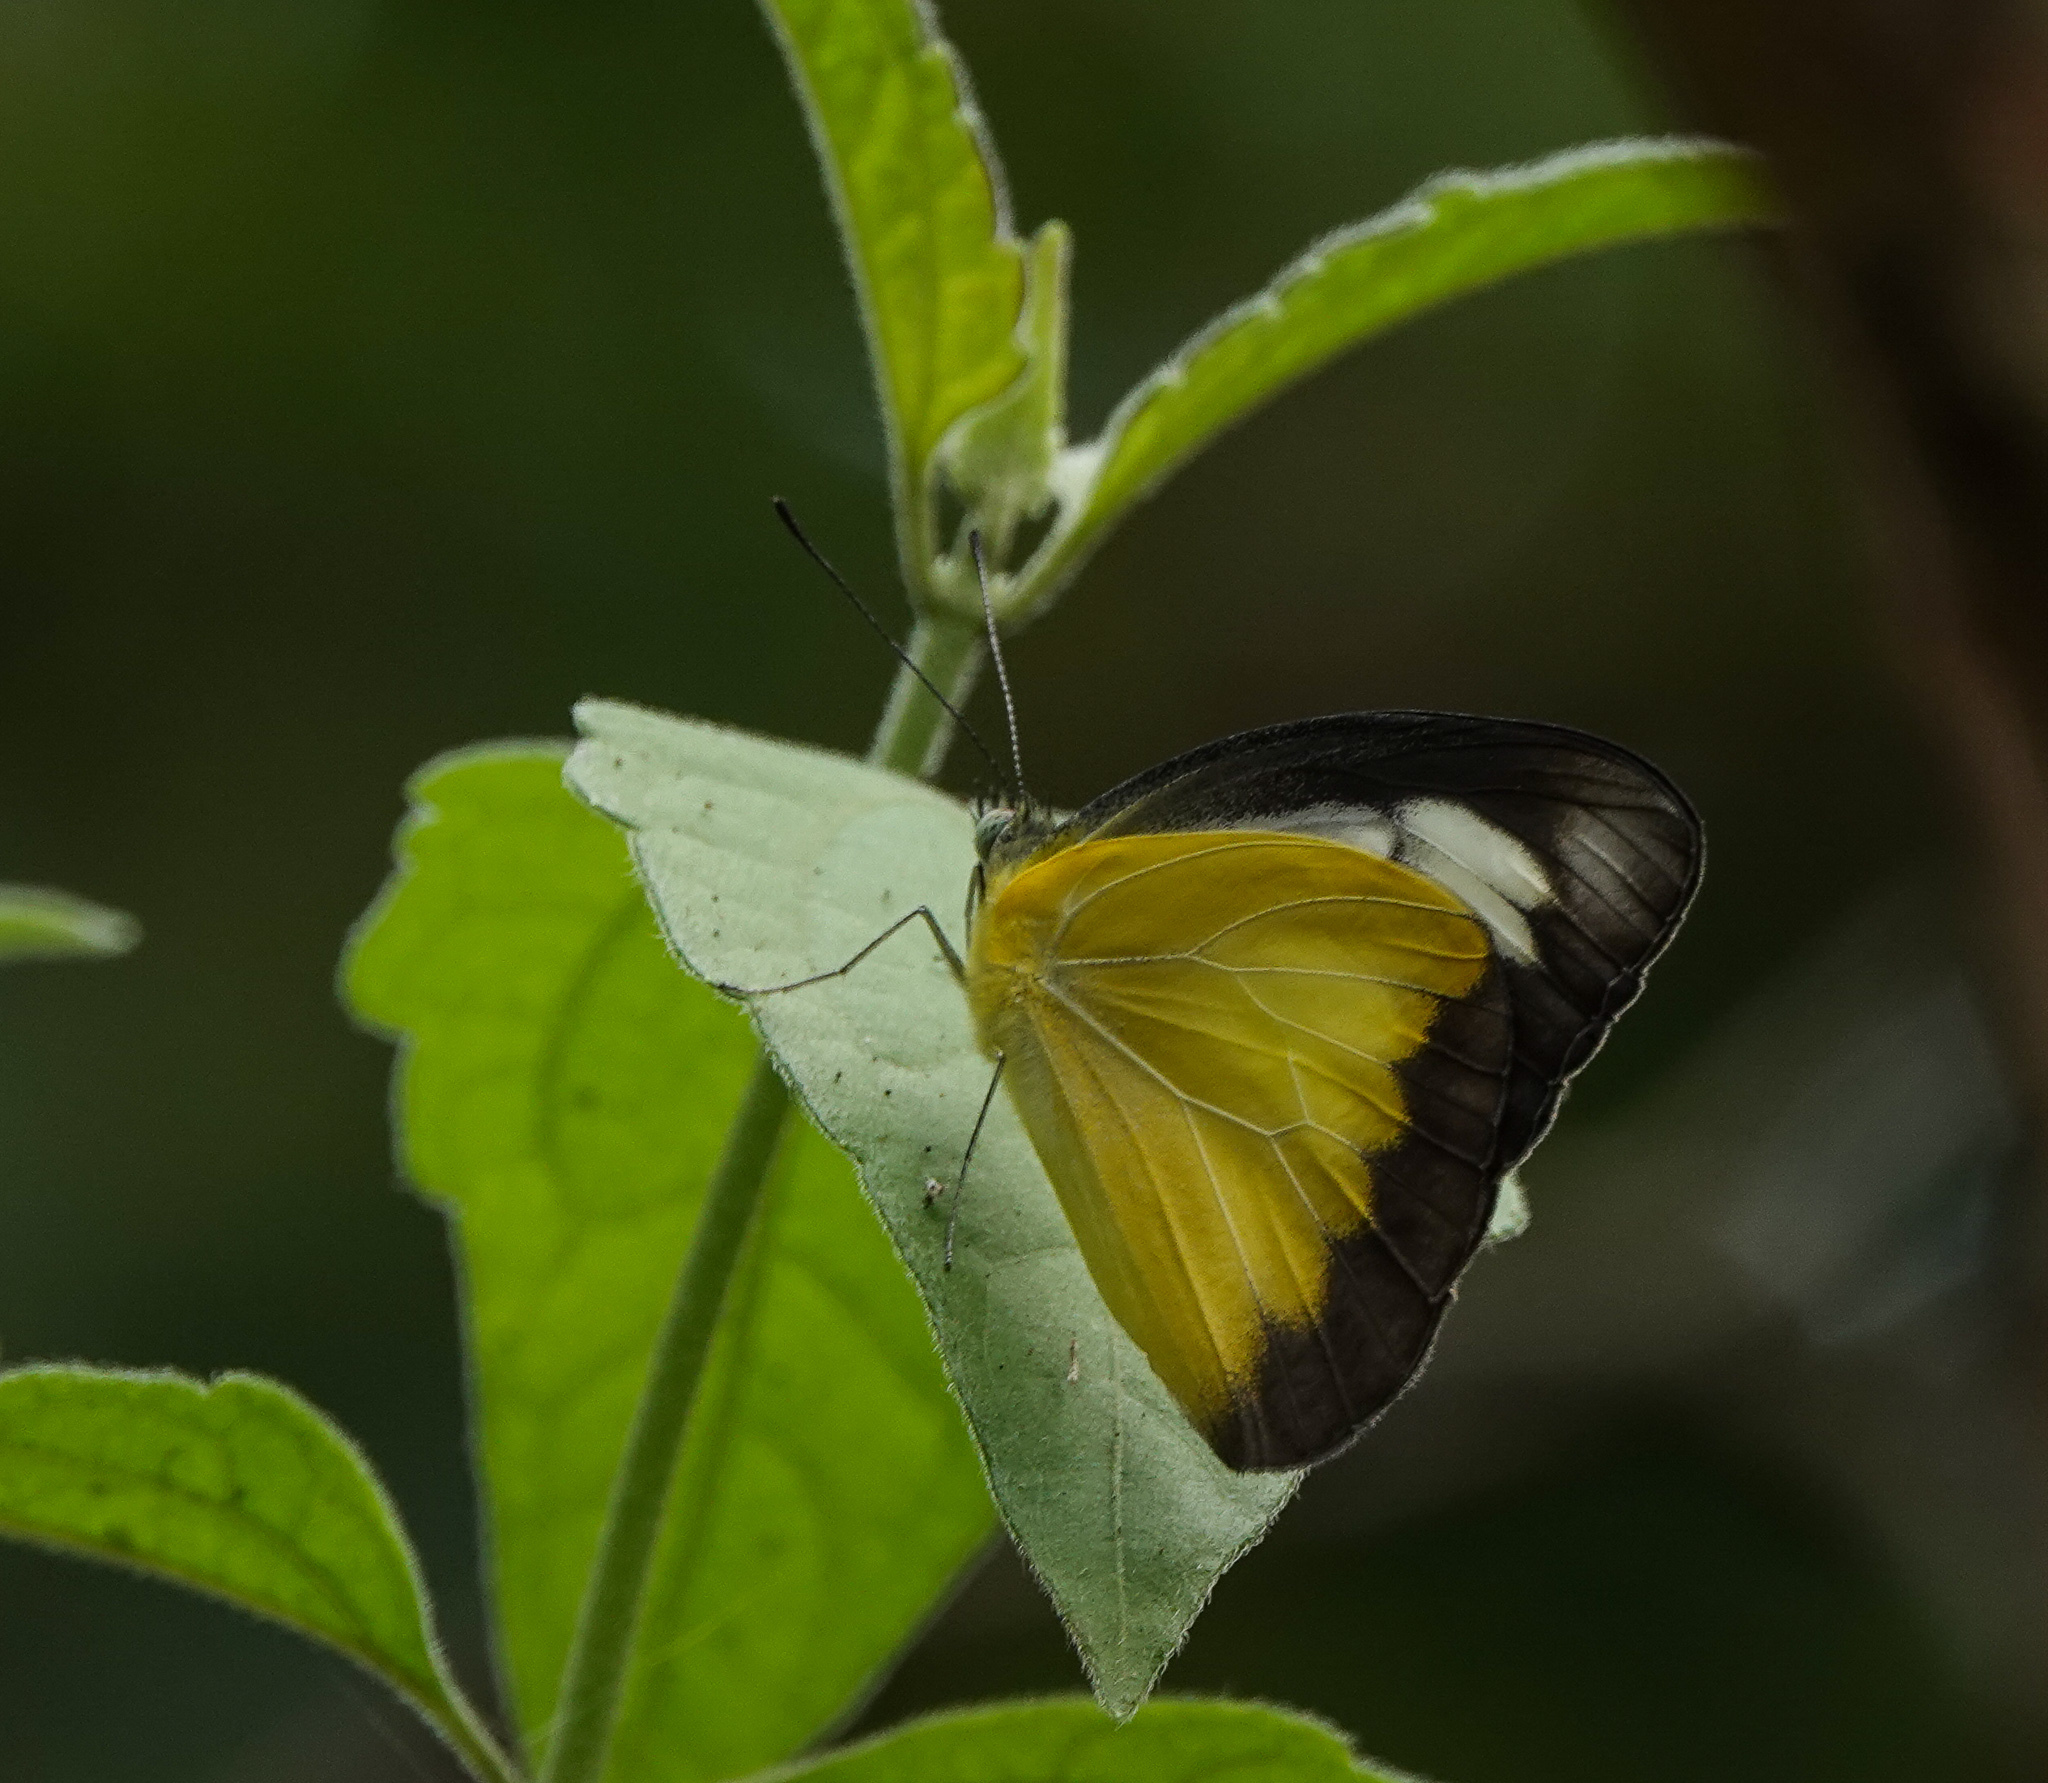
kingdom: Animalia
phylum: Arthropoda
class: Insecta
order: Lepidoptera
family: Pieridae
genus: Appias
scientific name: Appias lyncida
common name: Chocolate albatross
